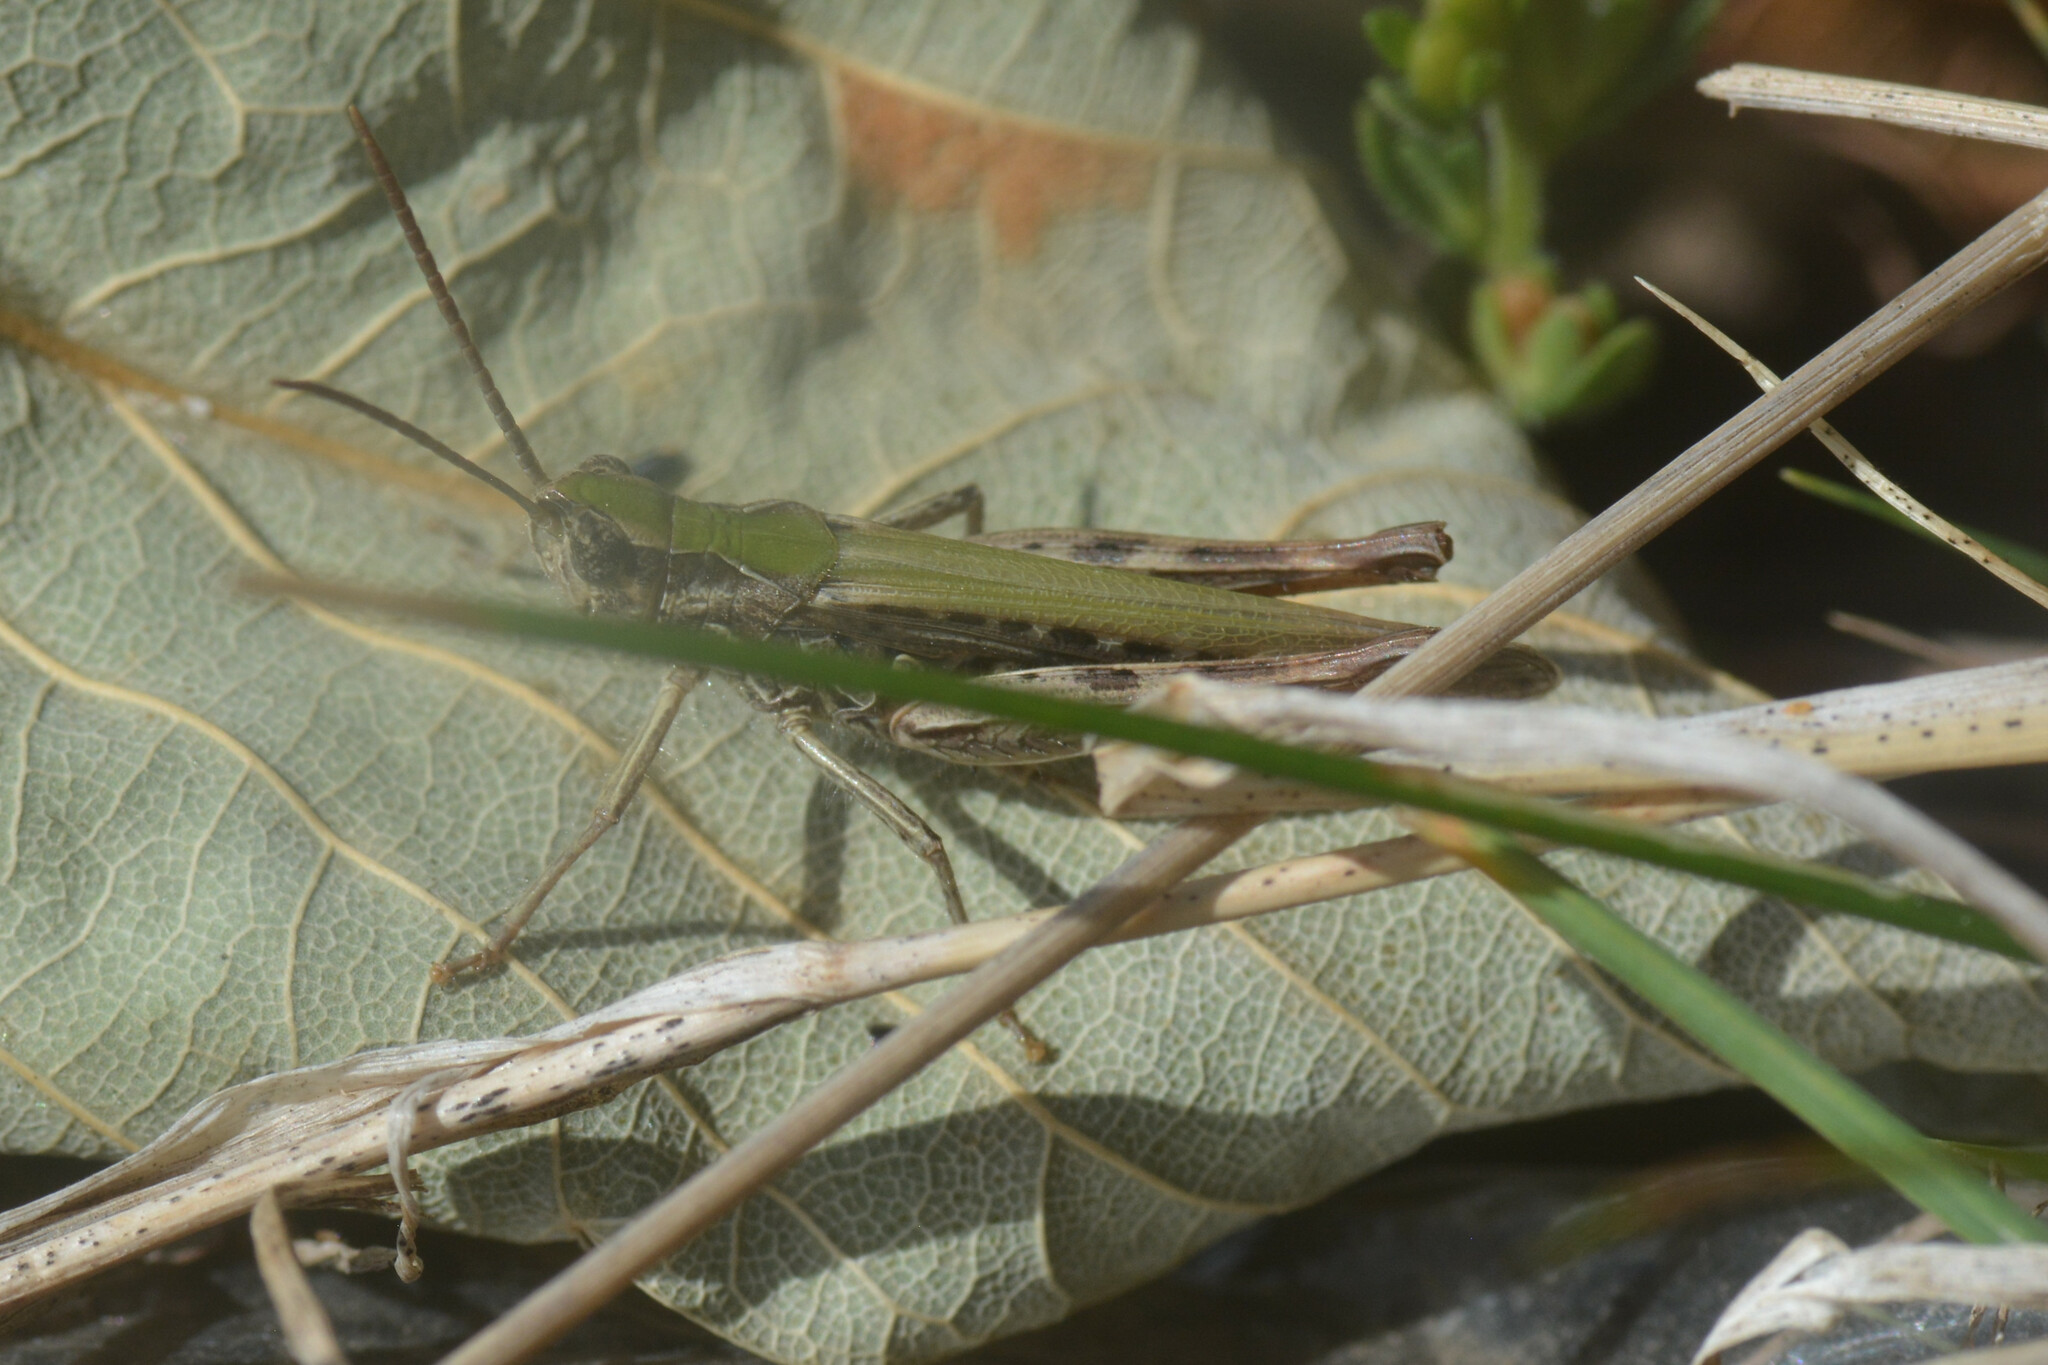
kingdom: Animalia
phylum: Arthropoda
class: Insecta
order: Orthoptera
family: Acrididae
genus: Chorthippus
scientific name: Chorthippus brunneus
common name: Field grasshopper
